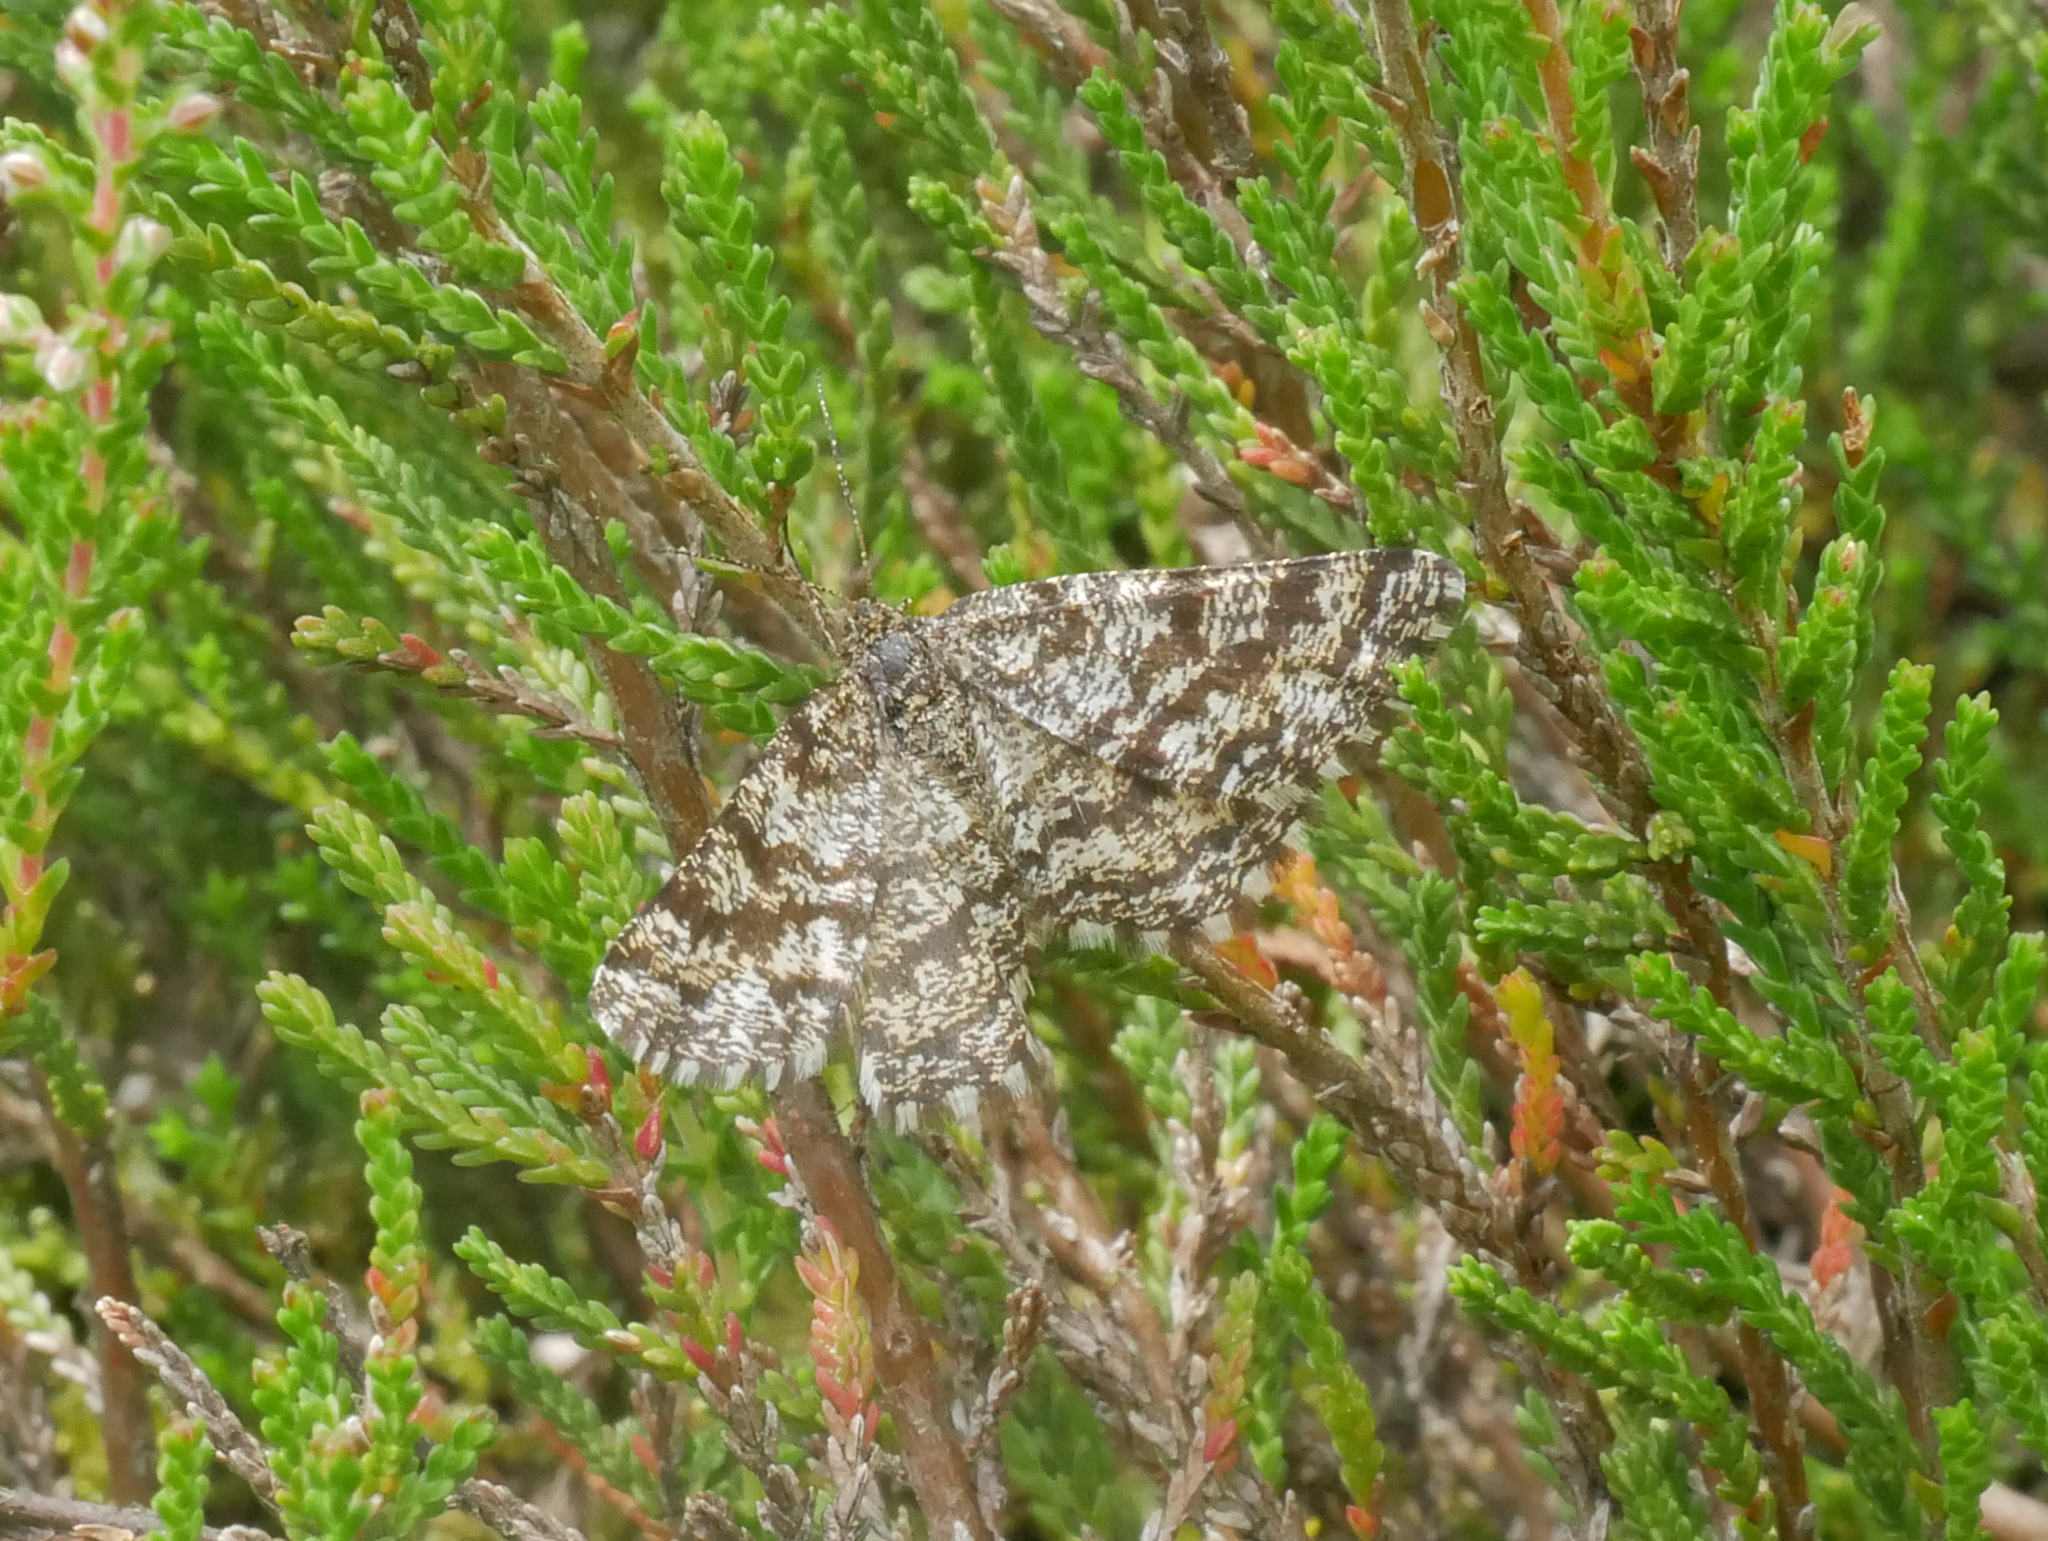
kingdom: Animalia
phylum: Arthropoda
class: Insecta
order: Lepidoptera
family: Geometridae
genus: Ematurga
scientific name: Ematurga atomaria
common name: Common heath
